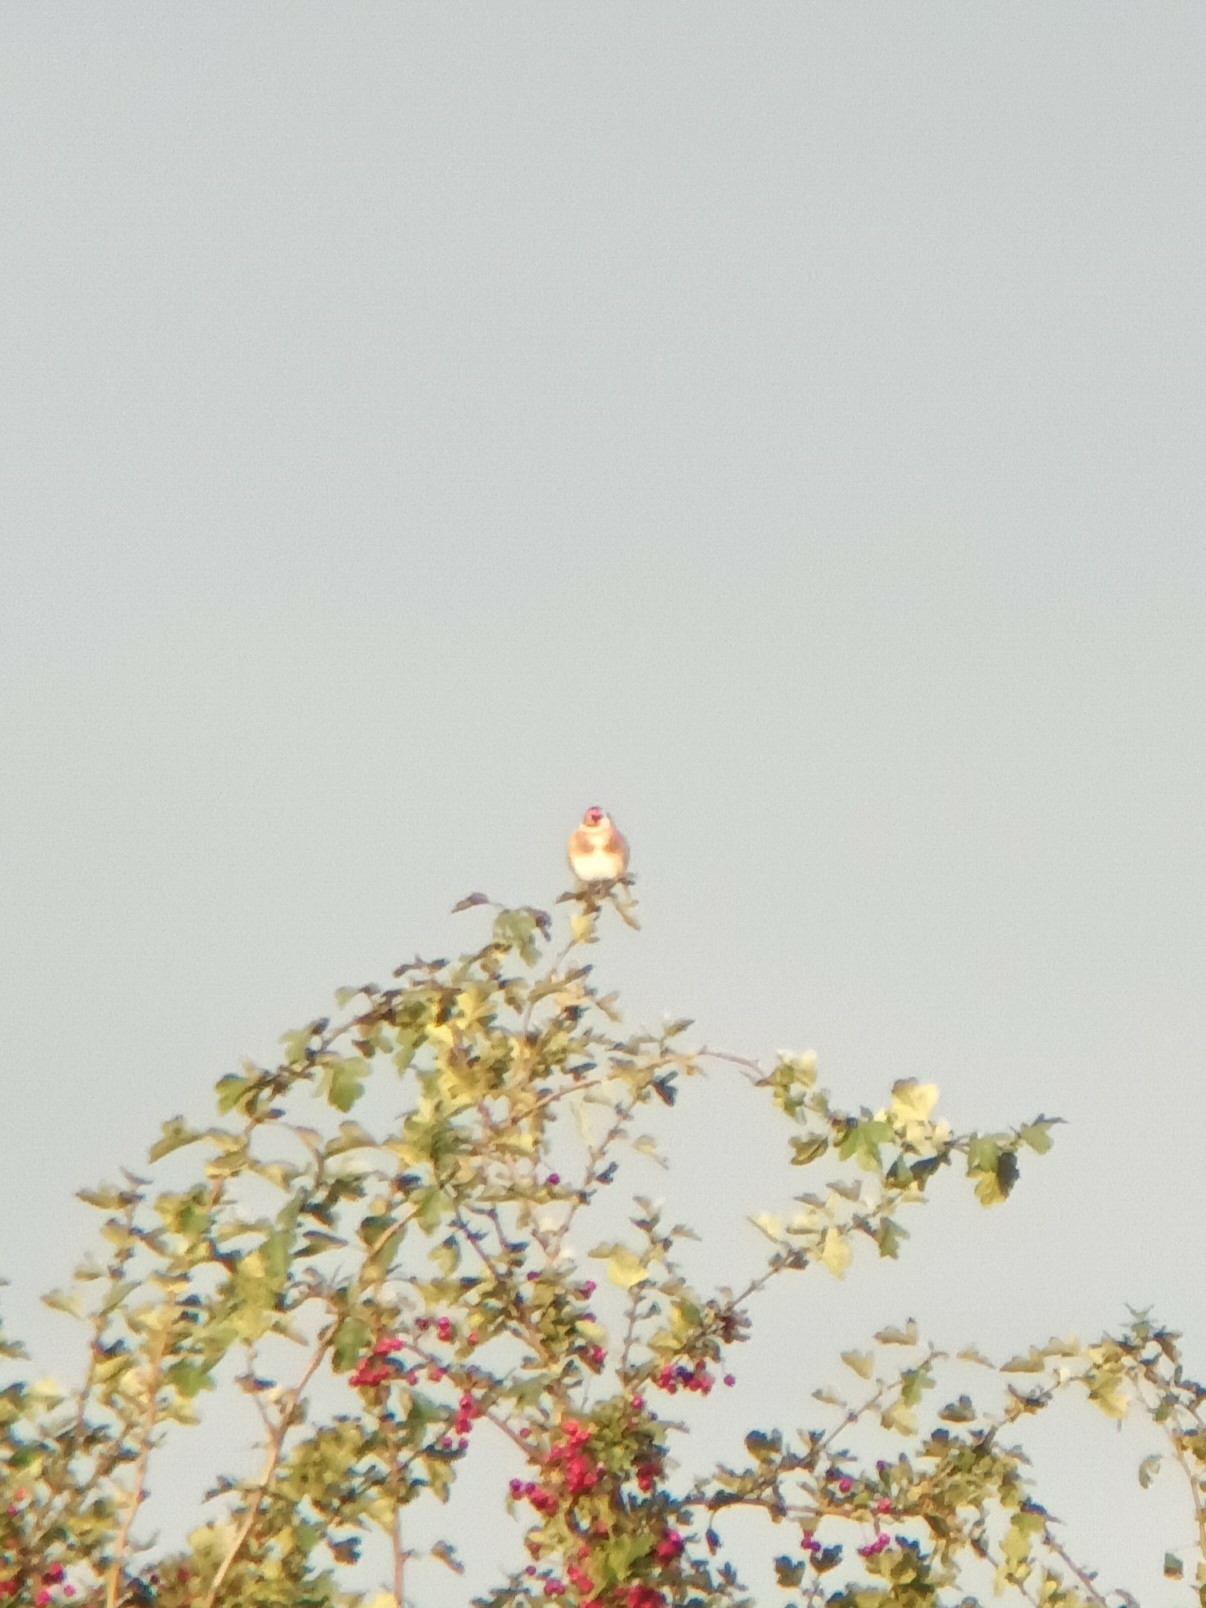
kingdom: Animalia
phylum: Chordata
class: Aves
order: Passeriformes
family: Fringillidae
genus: Carduelis
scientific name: Carduelis carduelis
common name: European goldfinch
